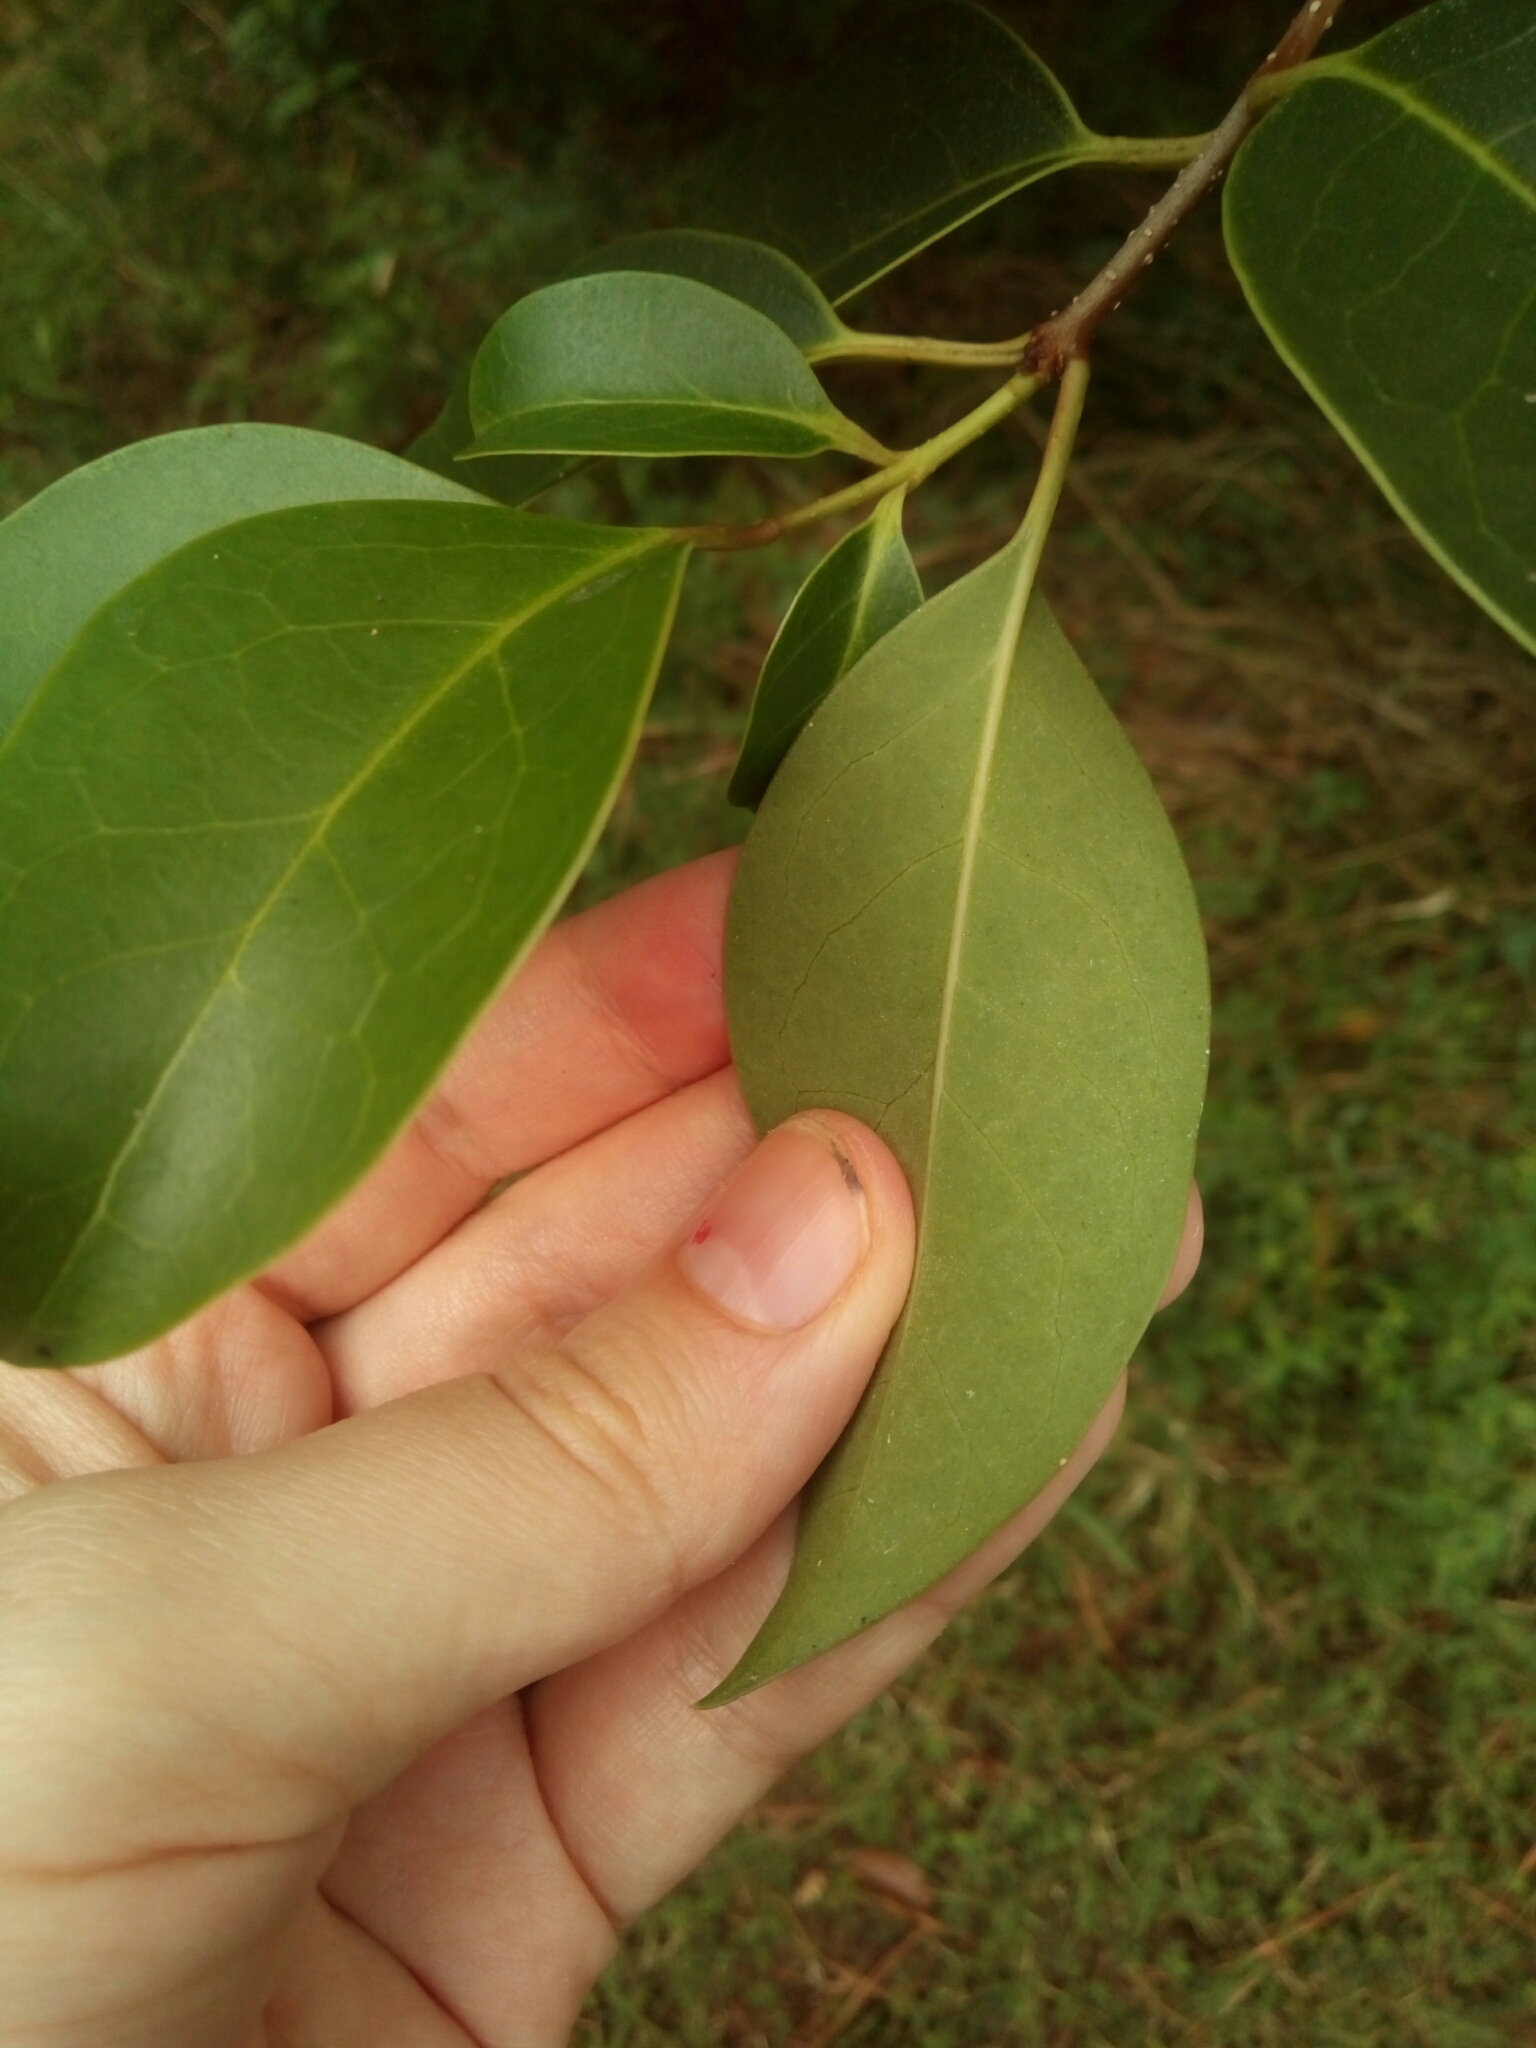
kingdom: Plantae
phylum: Tracheophyta
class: Magnoliopsida
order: Lamiales
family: Oleaceae
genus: Ligustrum
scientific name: Ligustrum lucidum
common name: Glossy privet
